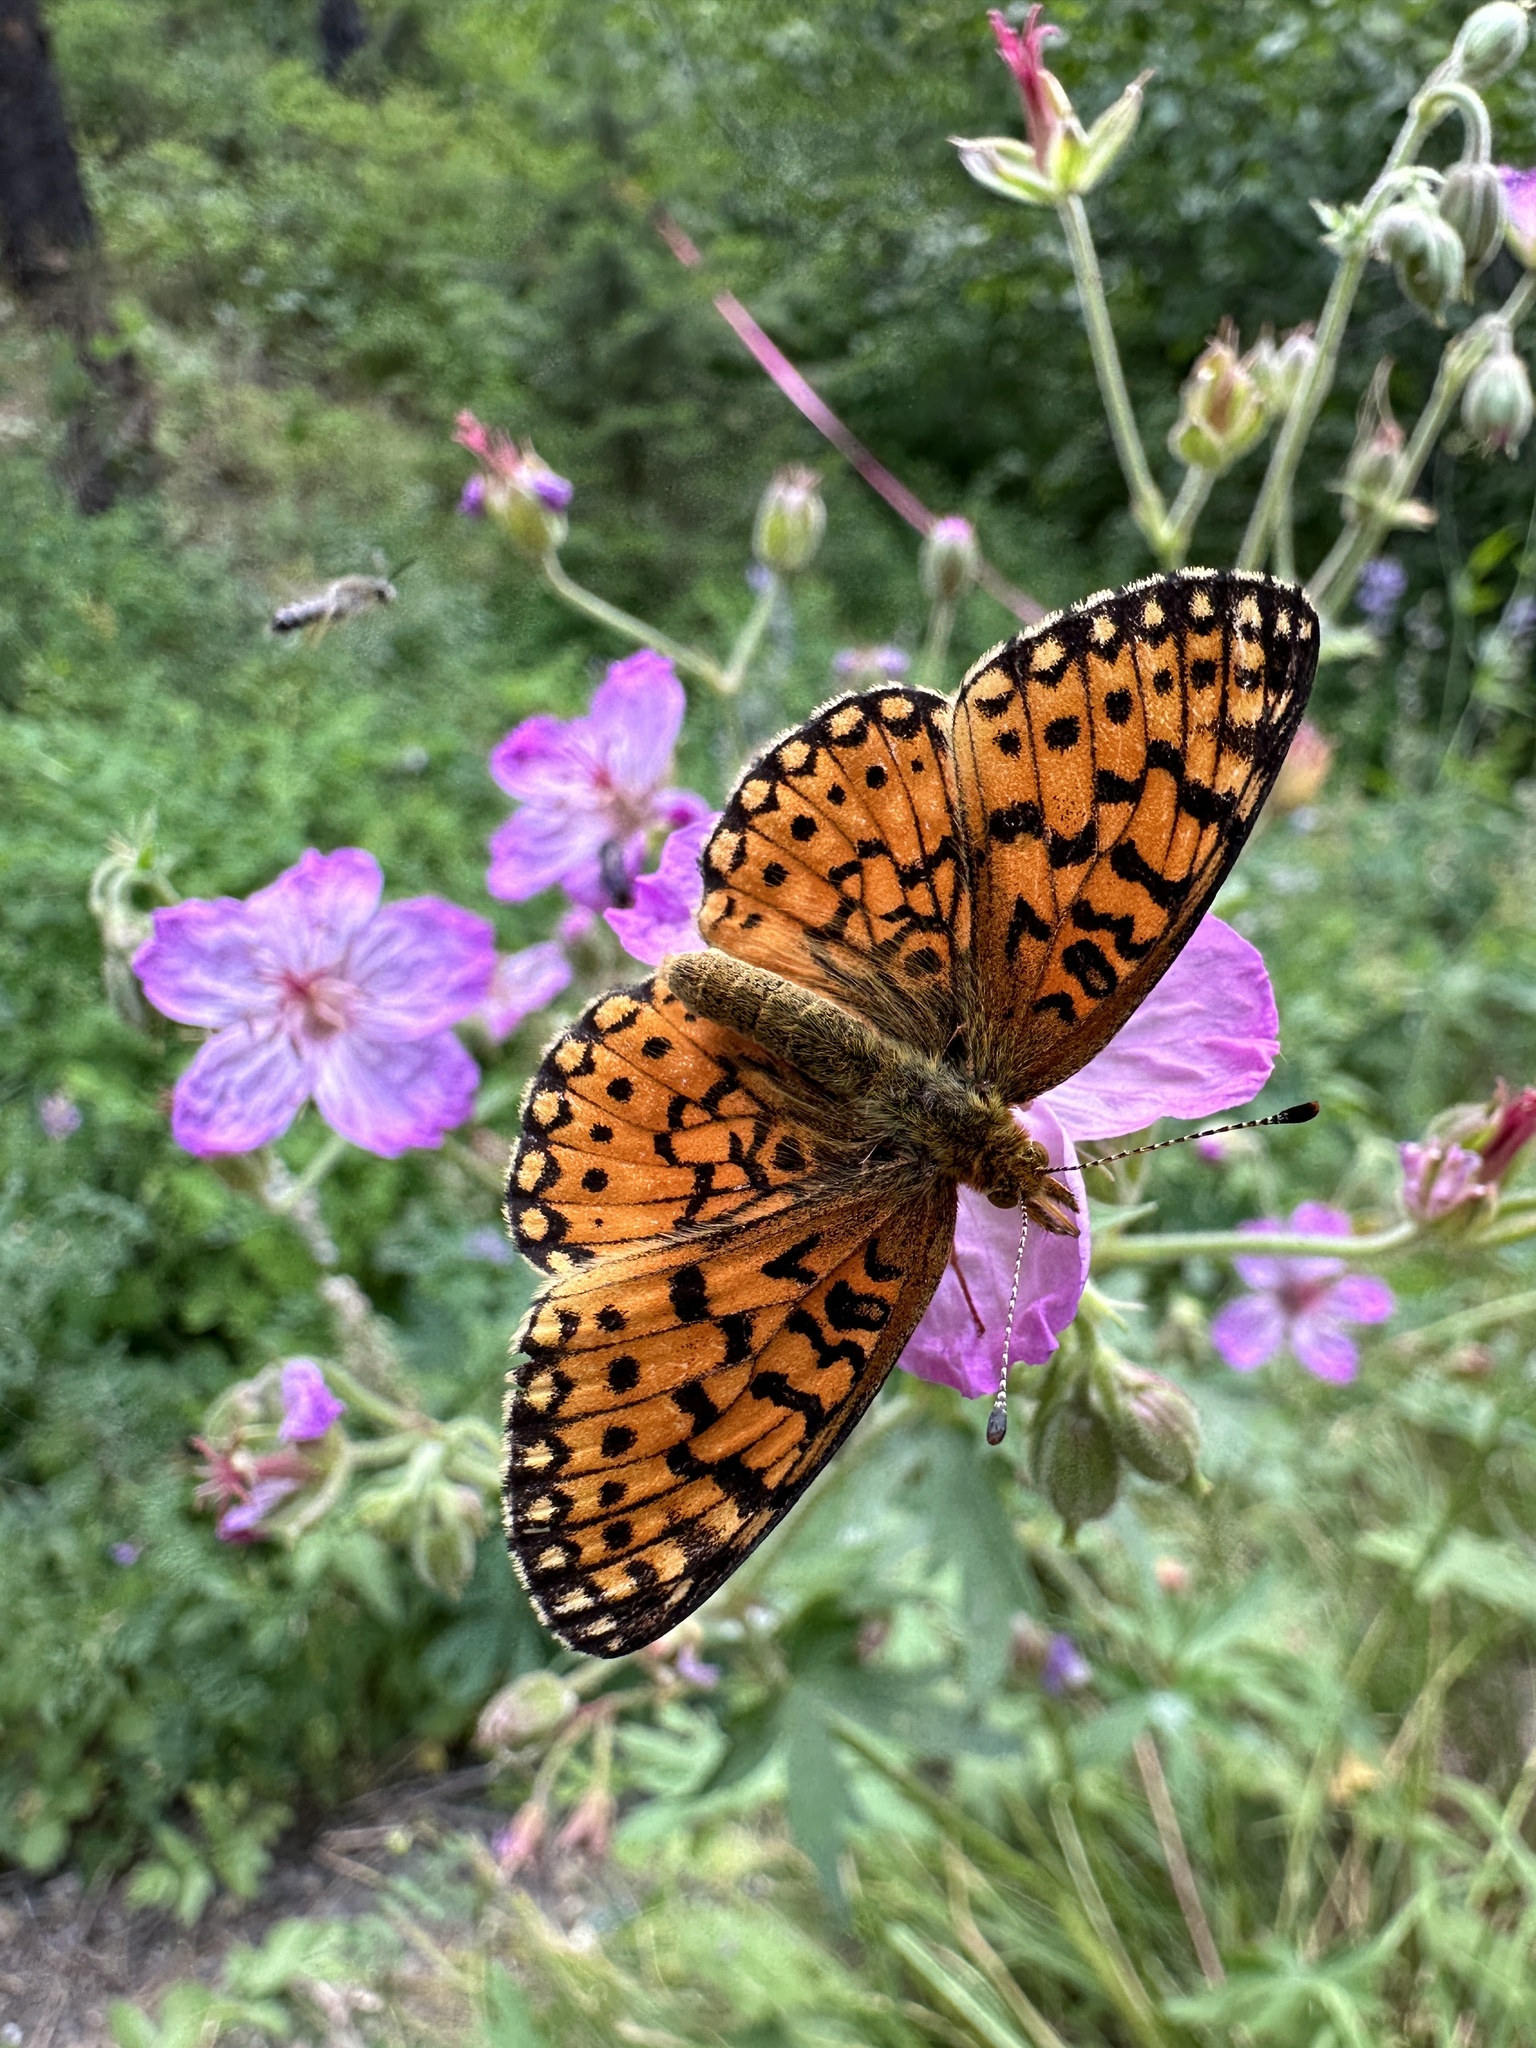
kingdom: Animalia
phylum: Arthropoda
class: Insecta
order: Lepidoptera
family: Nymphalidae
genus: Boloria
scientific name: Boloria
